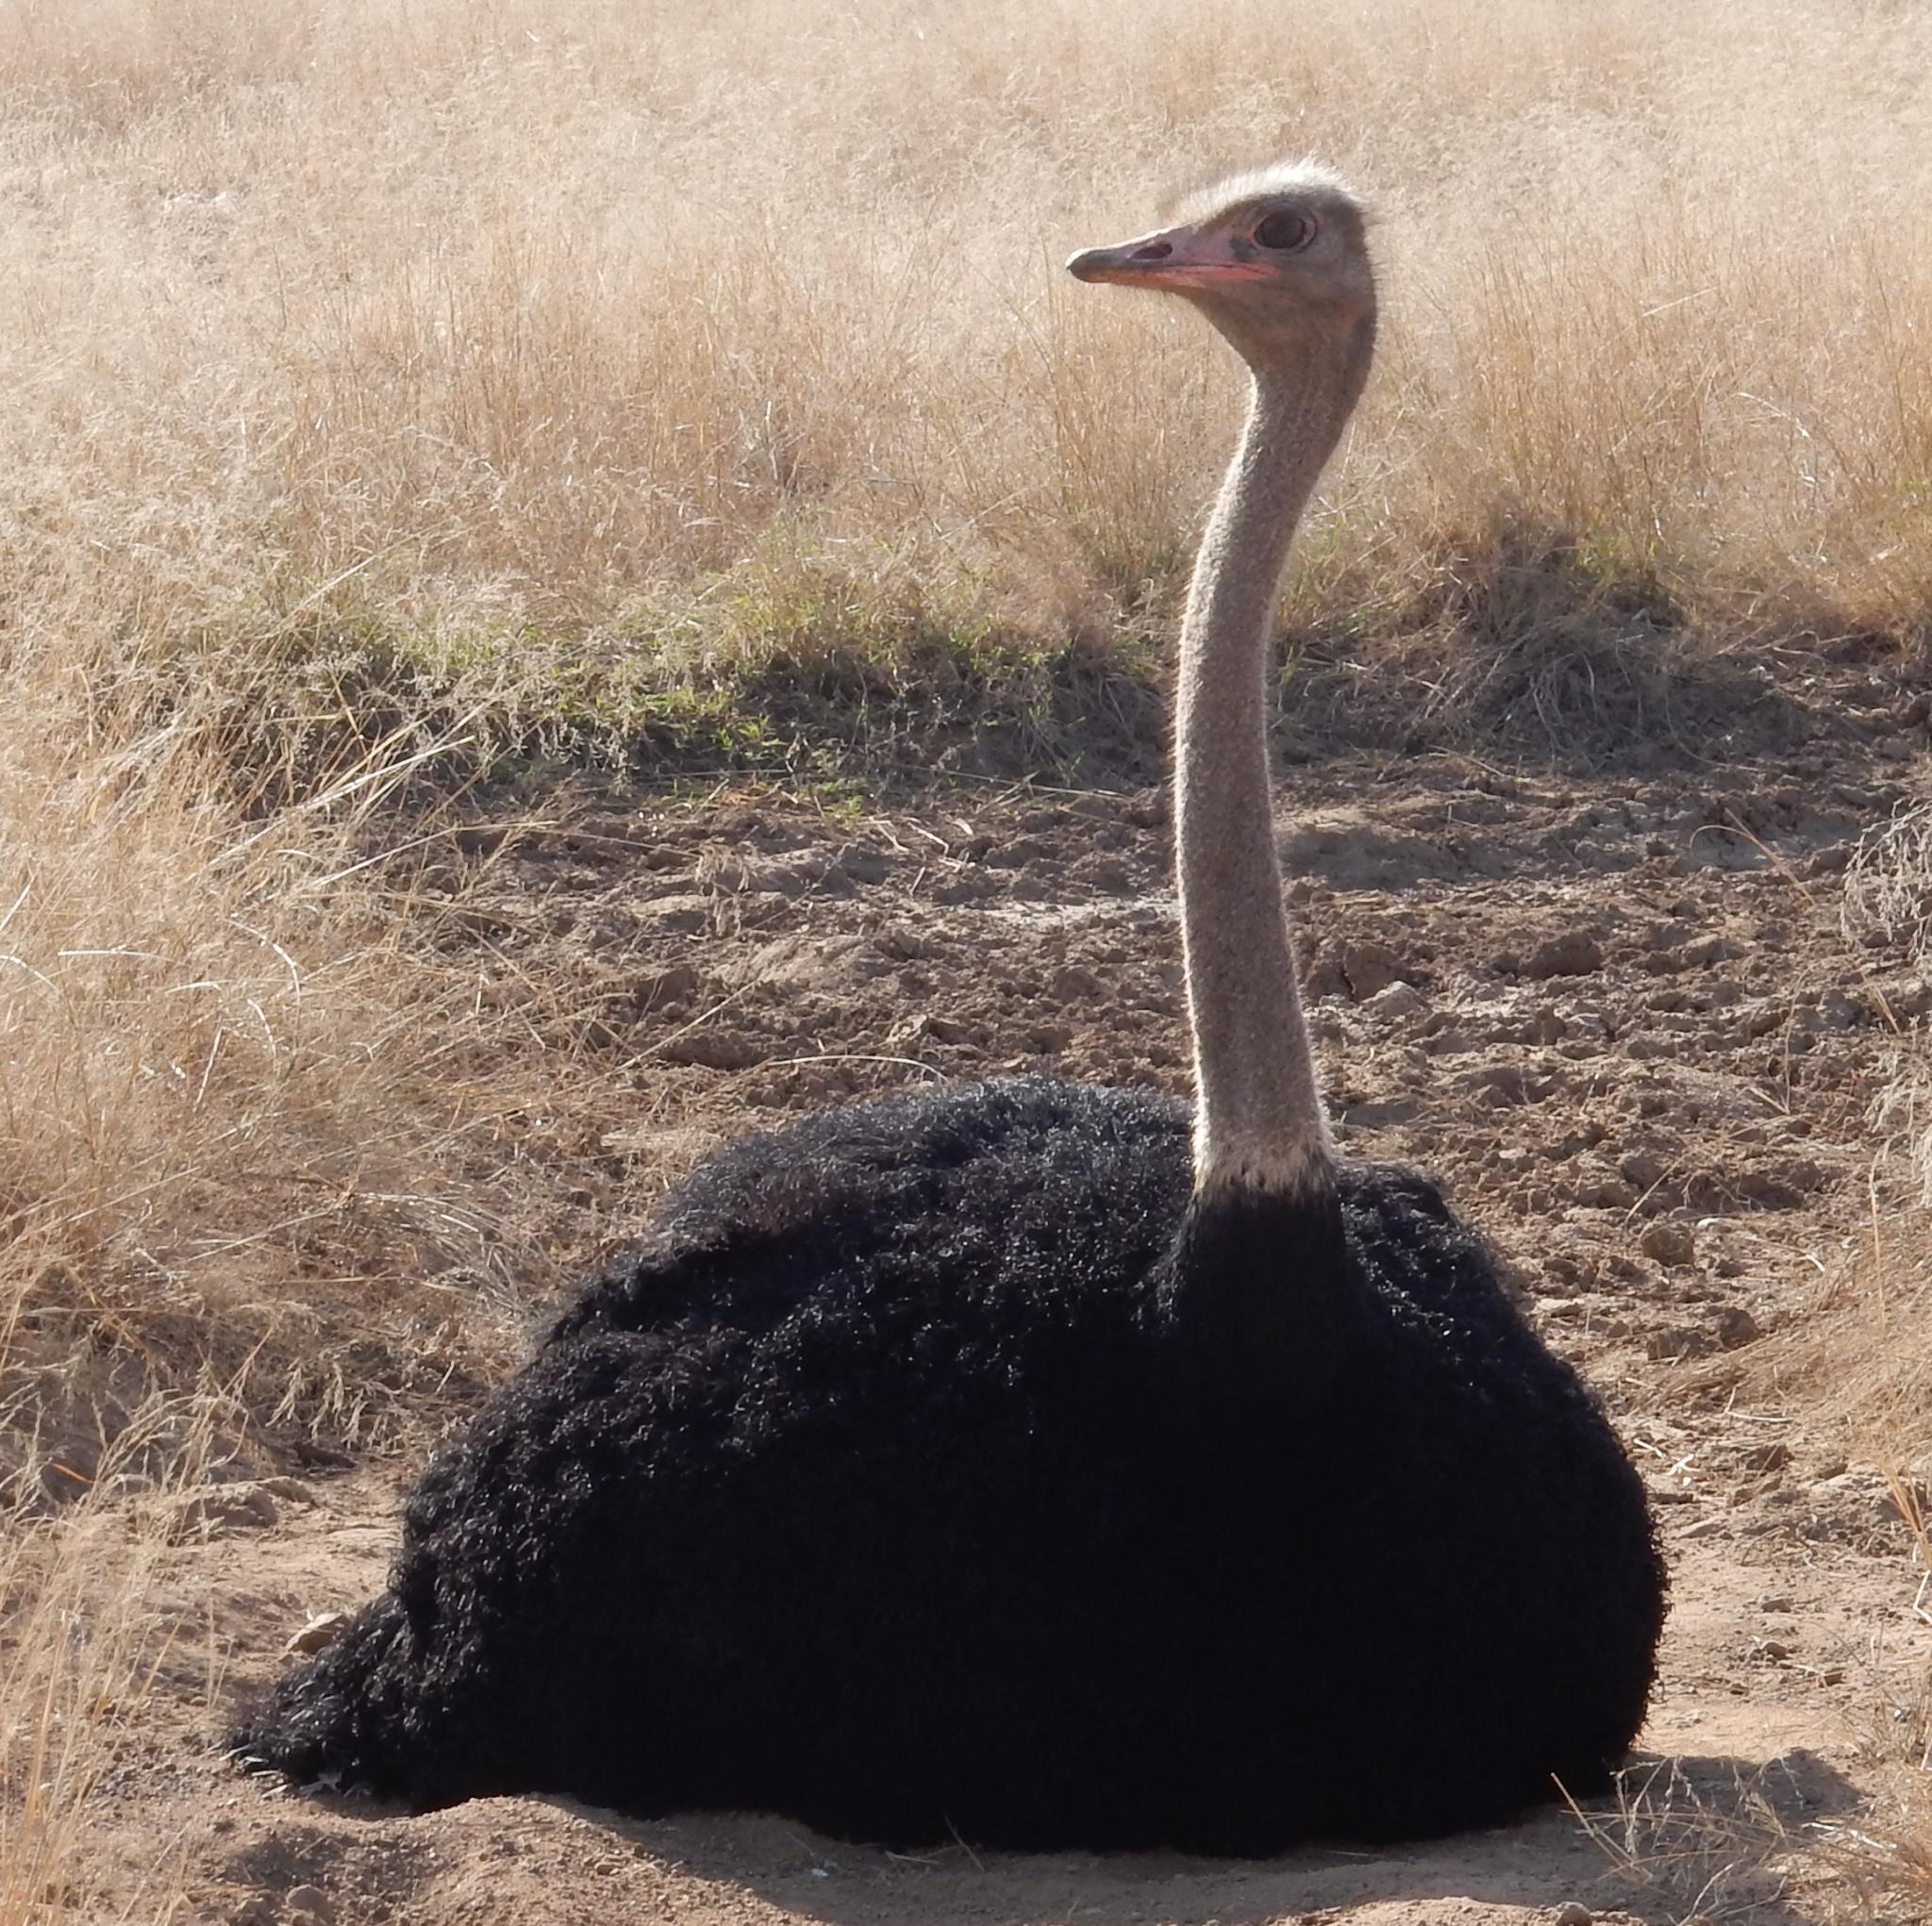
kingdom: Animalia
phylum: Chordata
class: Aves
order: Struthioniformes
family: Struthionidae
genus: Struthio
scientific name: Struthio camelus
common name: Common ostrich
